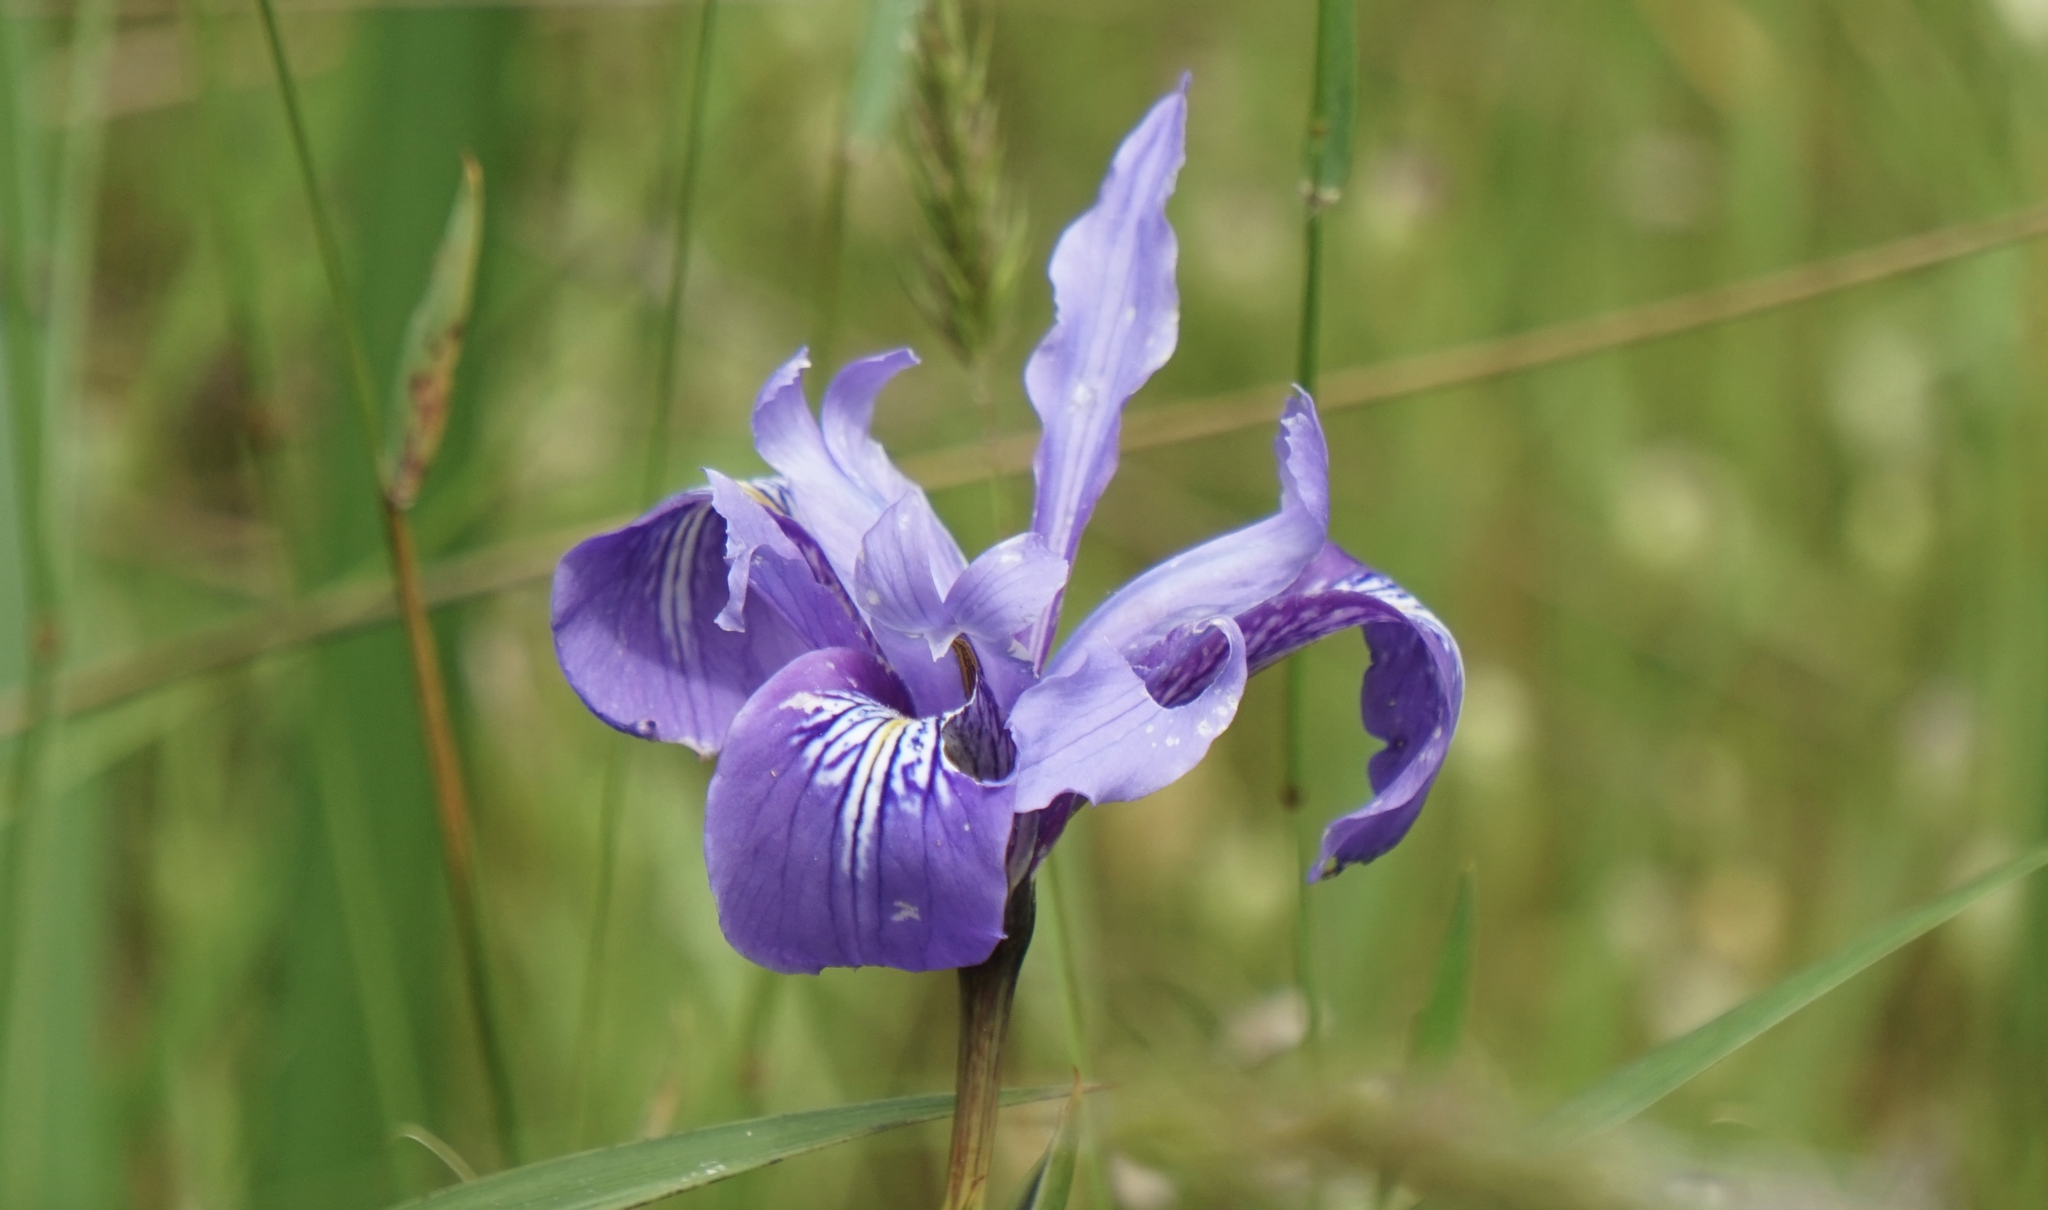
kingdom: Plantae
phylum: Tracheophyta
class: Liliopsida
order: Asparagales
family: Iridaceae
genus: Iris
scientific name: Iris douglasiana
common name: Marin iris
